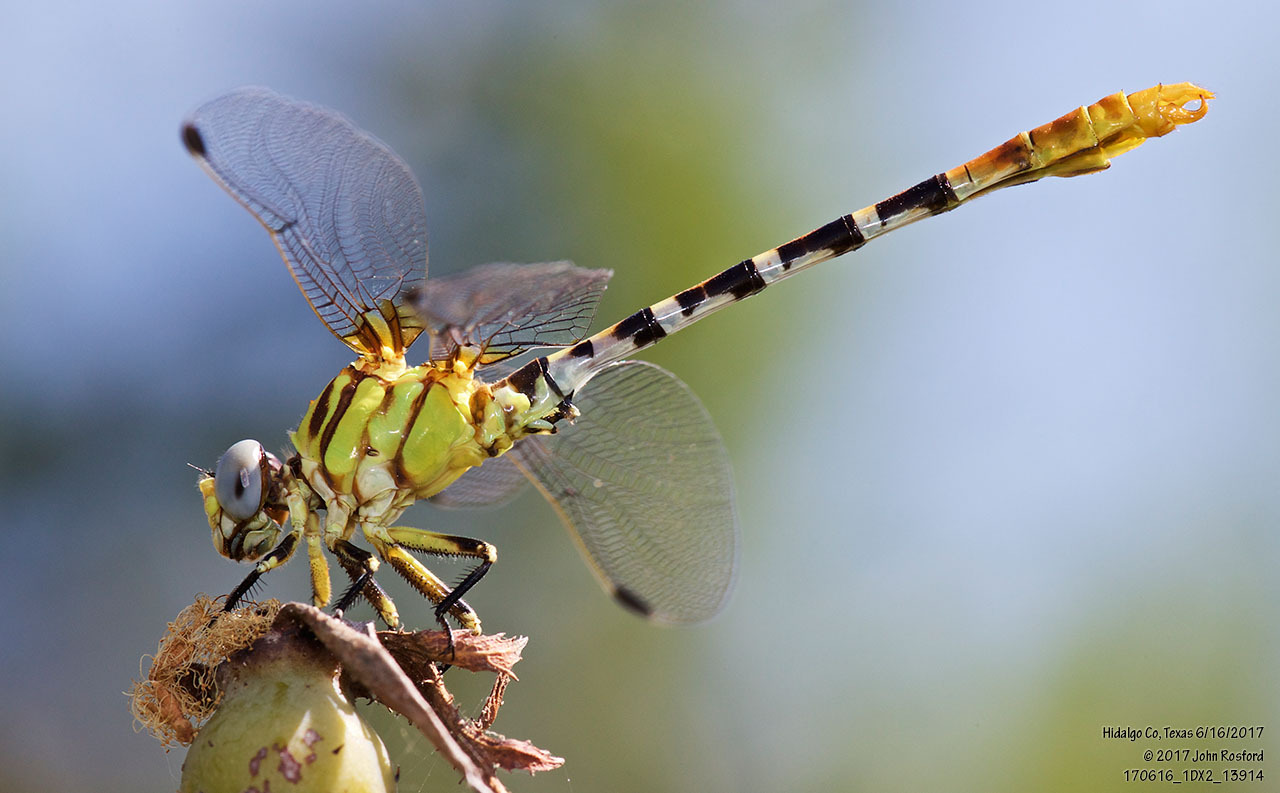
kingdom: Animalia
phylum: Arthropoda
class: Insecta
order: Odonata
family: Gomphidae
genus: Erpetogomphus
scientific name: Erpetogomphus designatus
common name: Eastern ringtail
